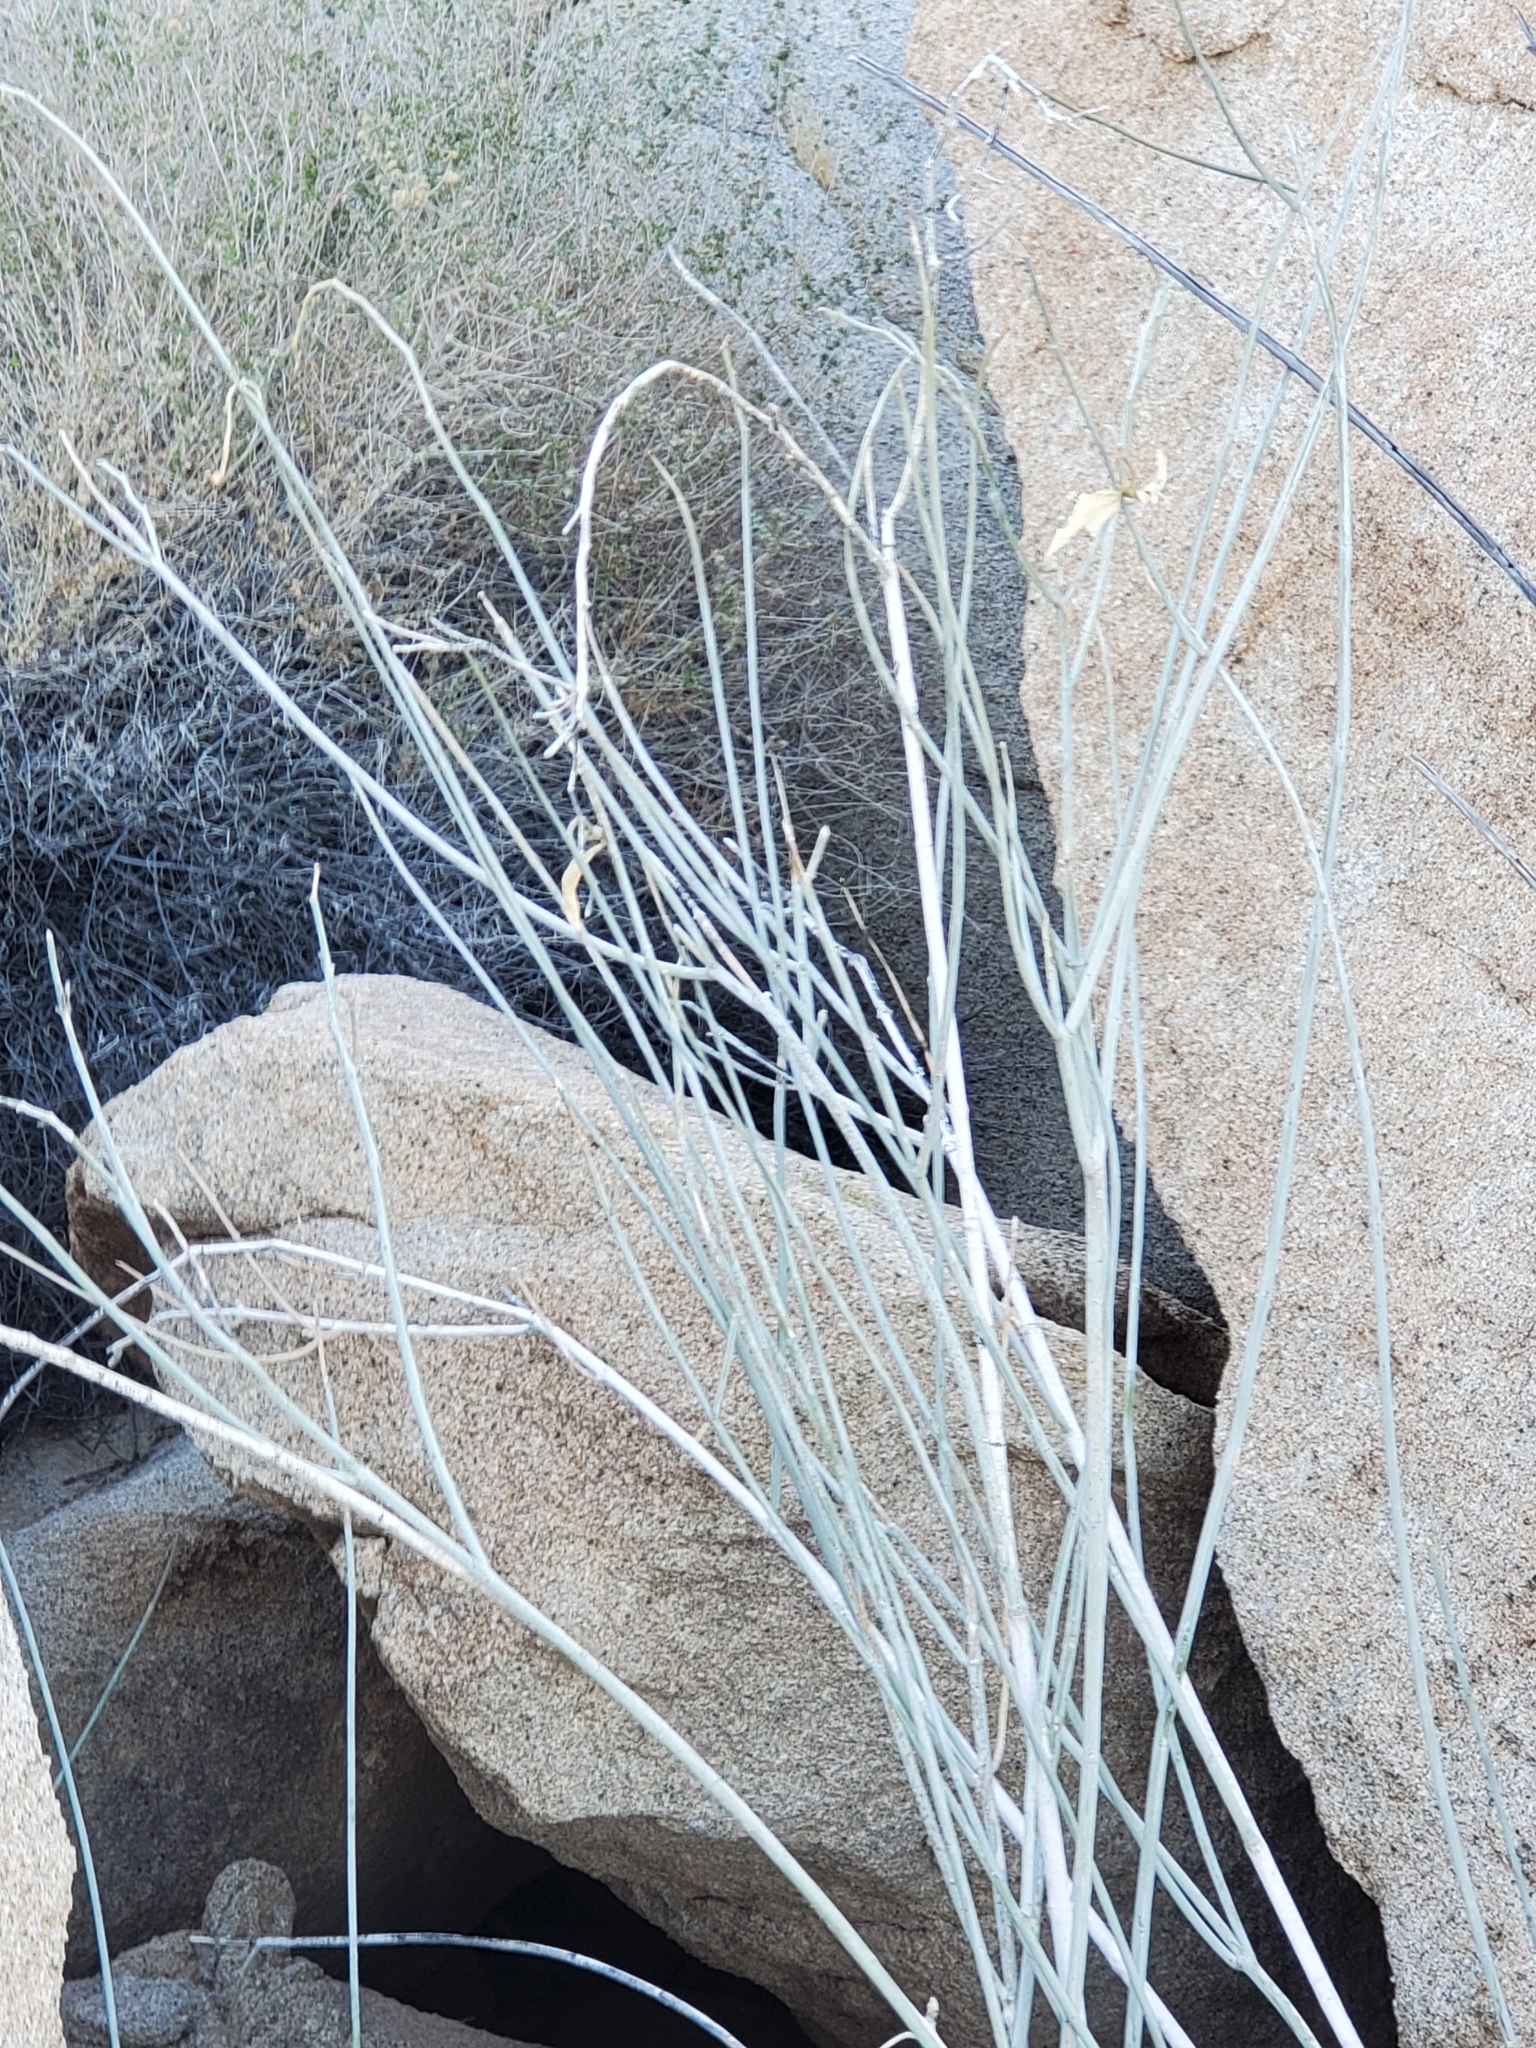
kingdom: Plantae
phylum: Tracheophyta
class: Magnoliopsida
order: Gentianales
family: Apocynaceae
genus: Asclepias
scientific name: Asclepias albicans
